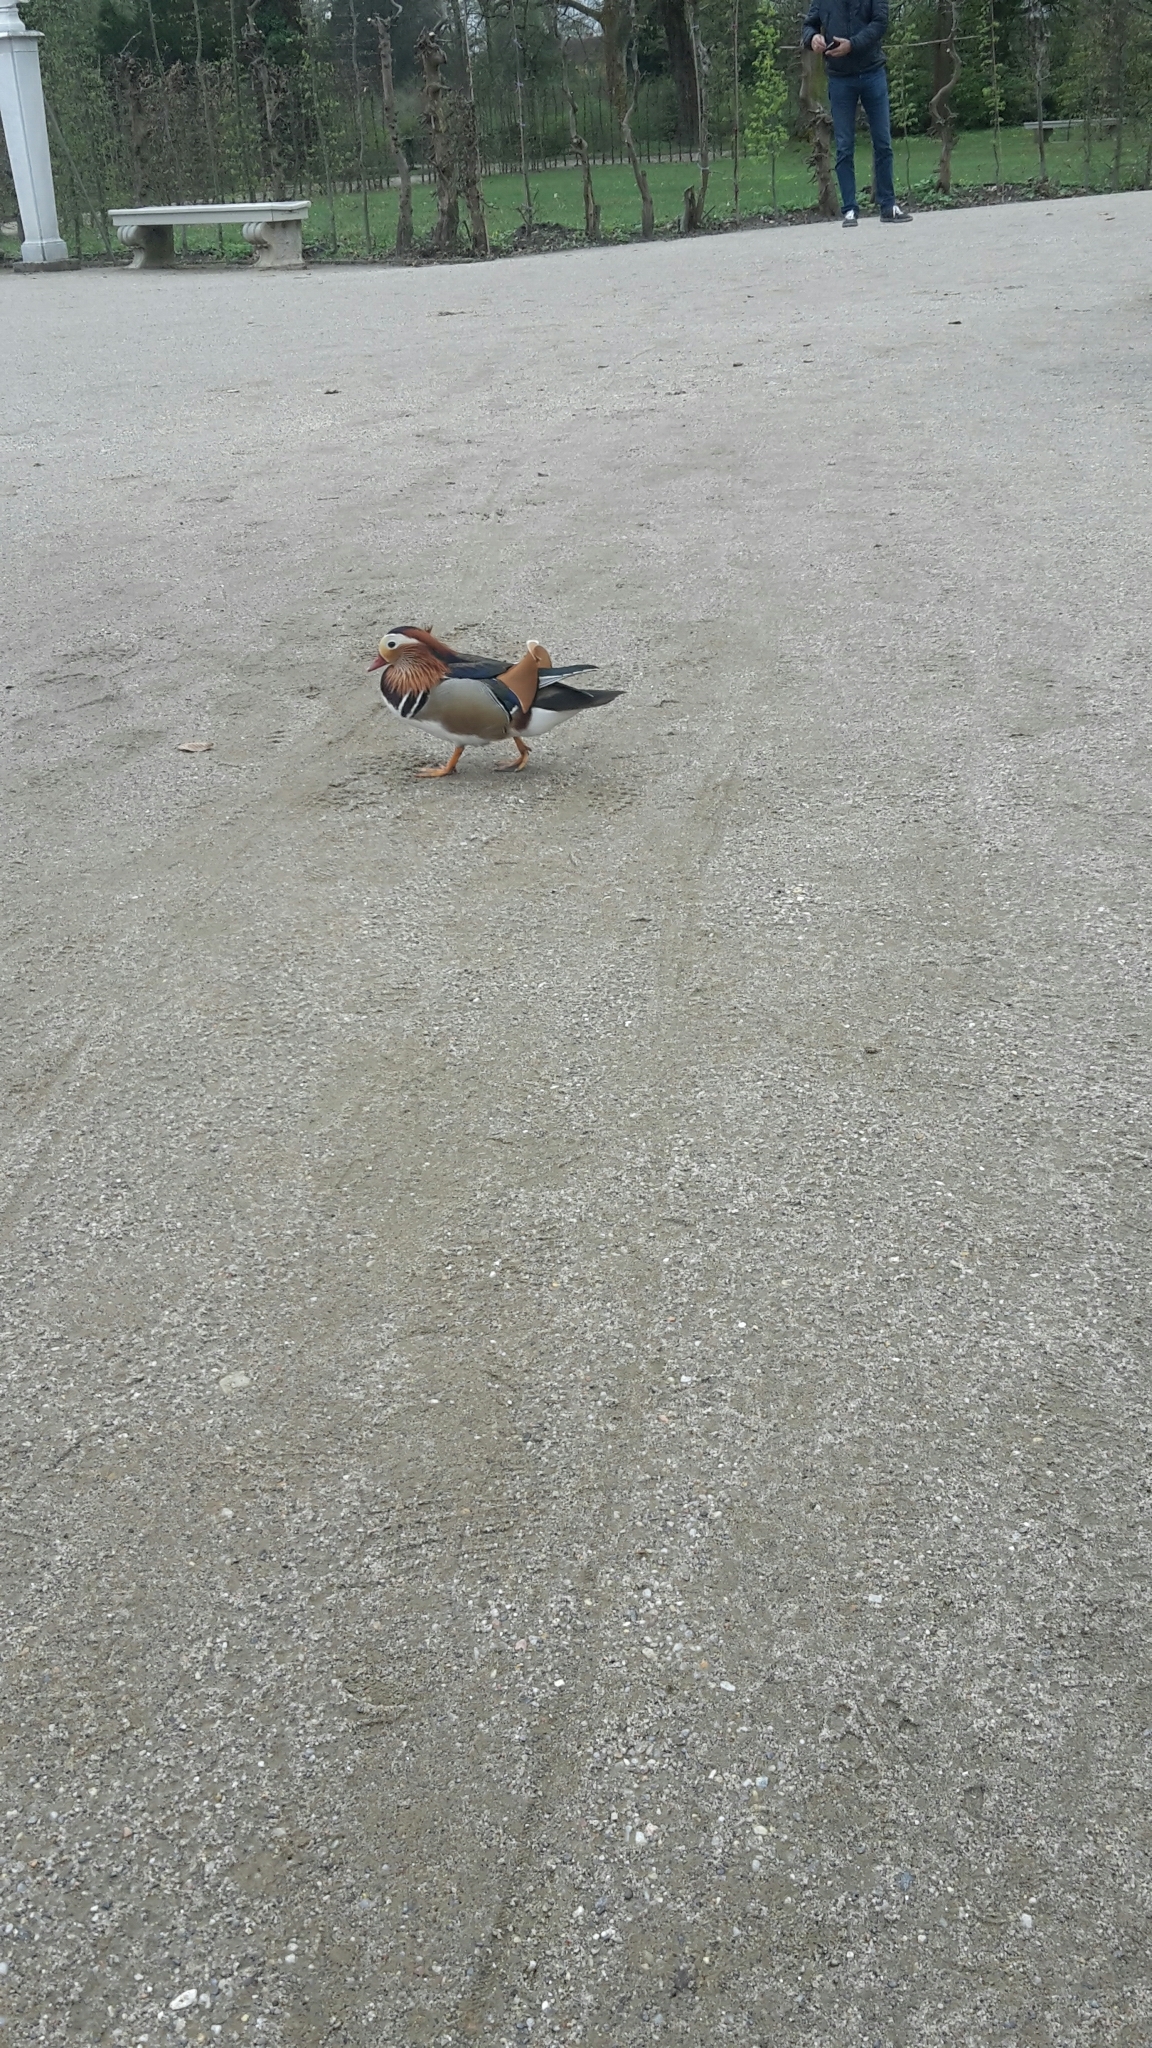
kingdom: Animalia
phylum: Chordata
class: Aves
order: Anseriformes
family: Anatidae
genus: Aix
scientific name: Aix galericulata
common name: Mandarin duck
